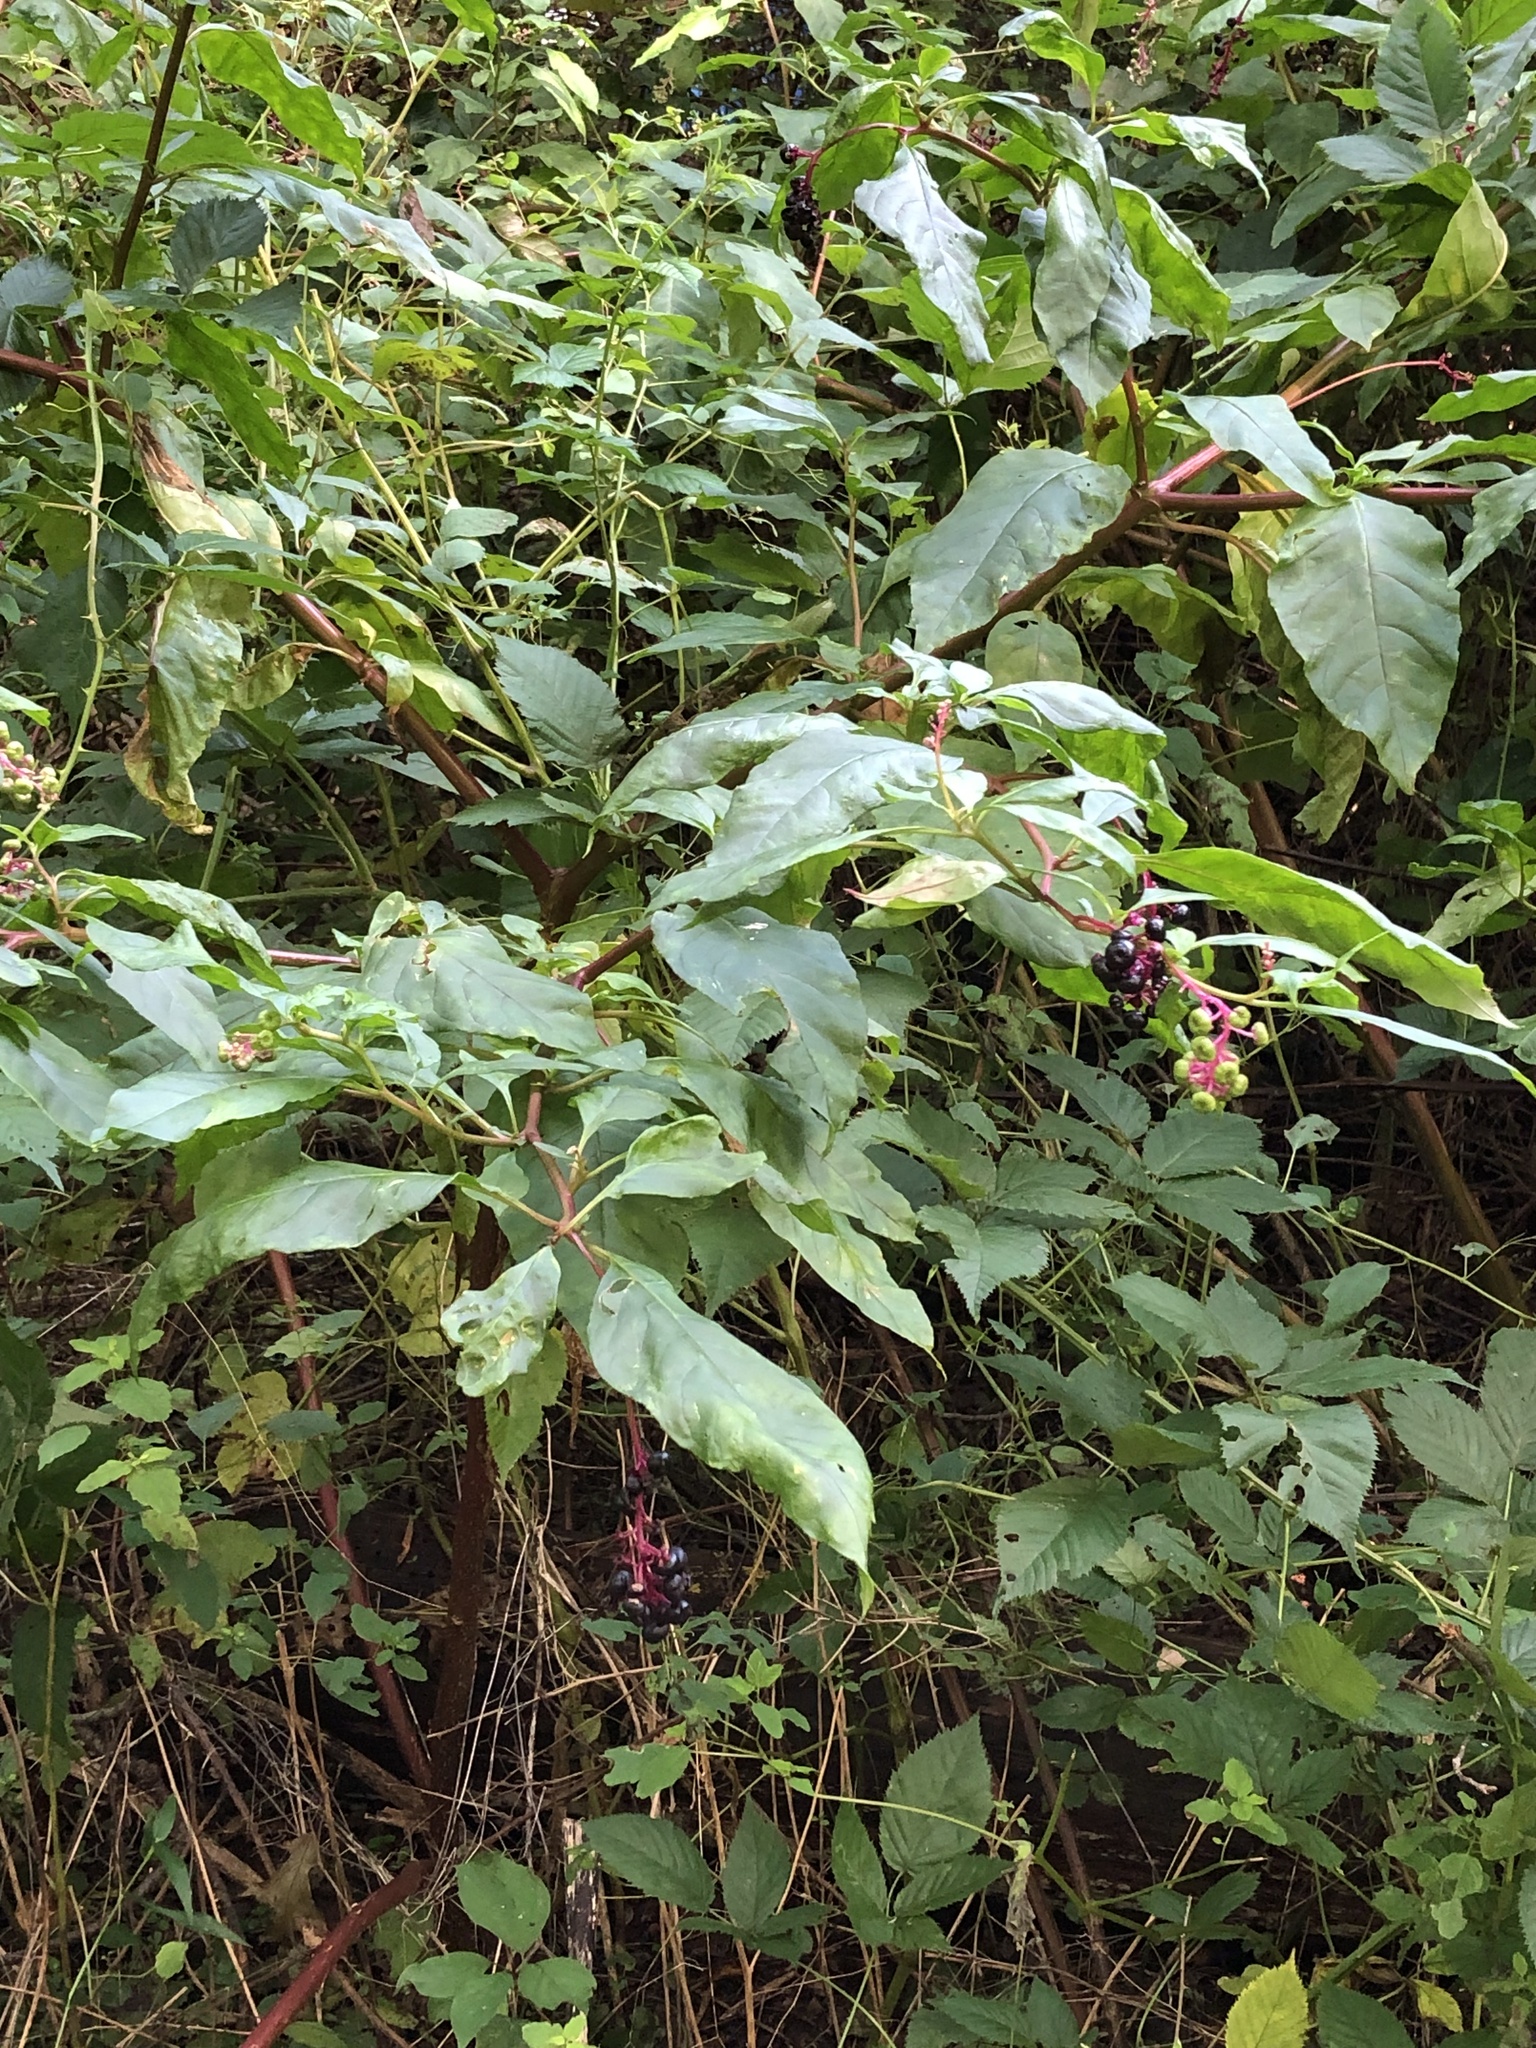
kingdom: Plantae
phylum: Tracheophyta
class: Magnoliopsida
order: Caryophyllales
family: Phytolaccaceae
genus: Phytolacca
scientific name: Phytolacca americana
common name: American pokeweed
